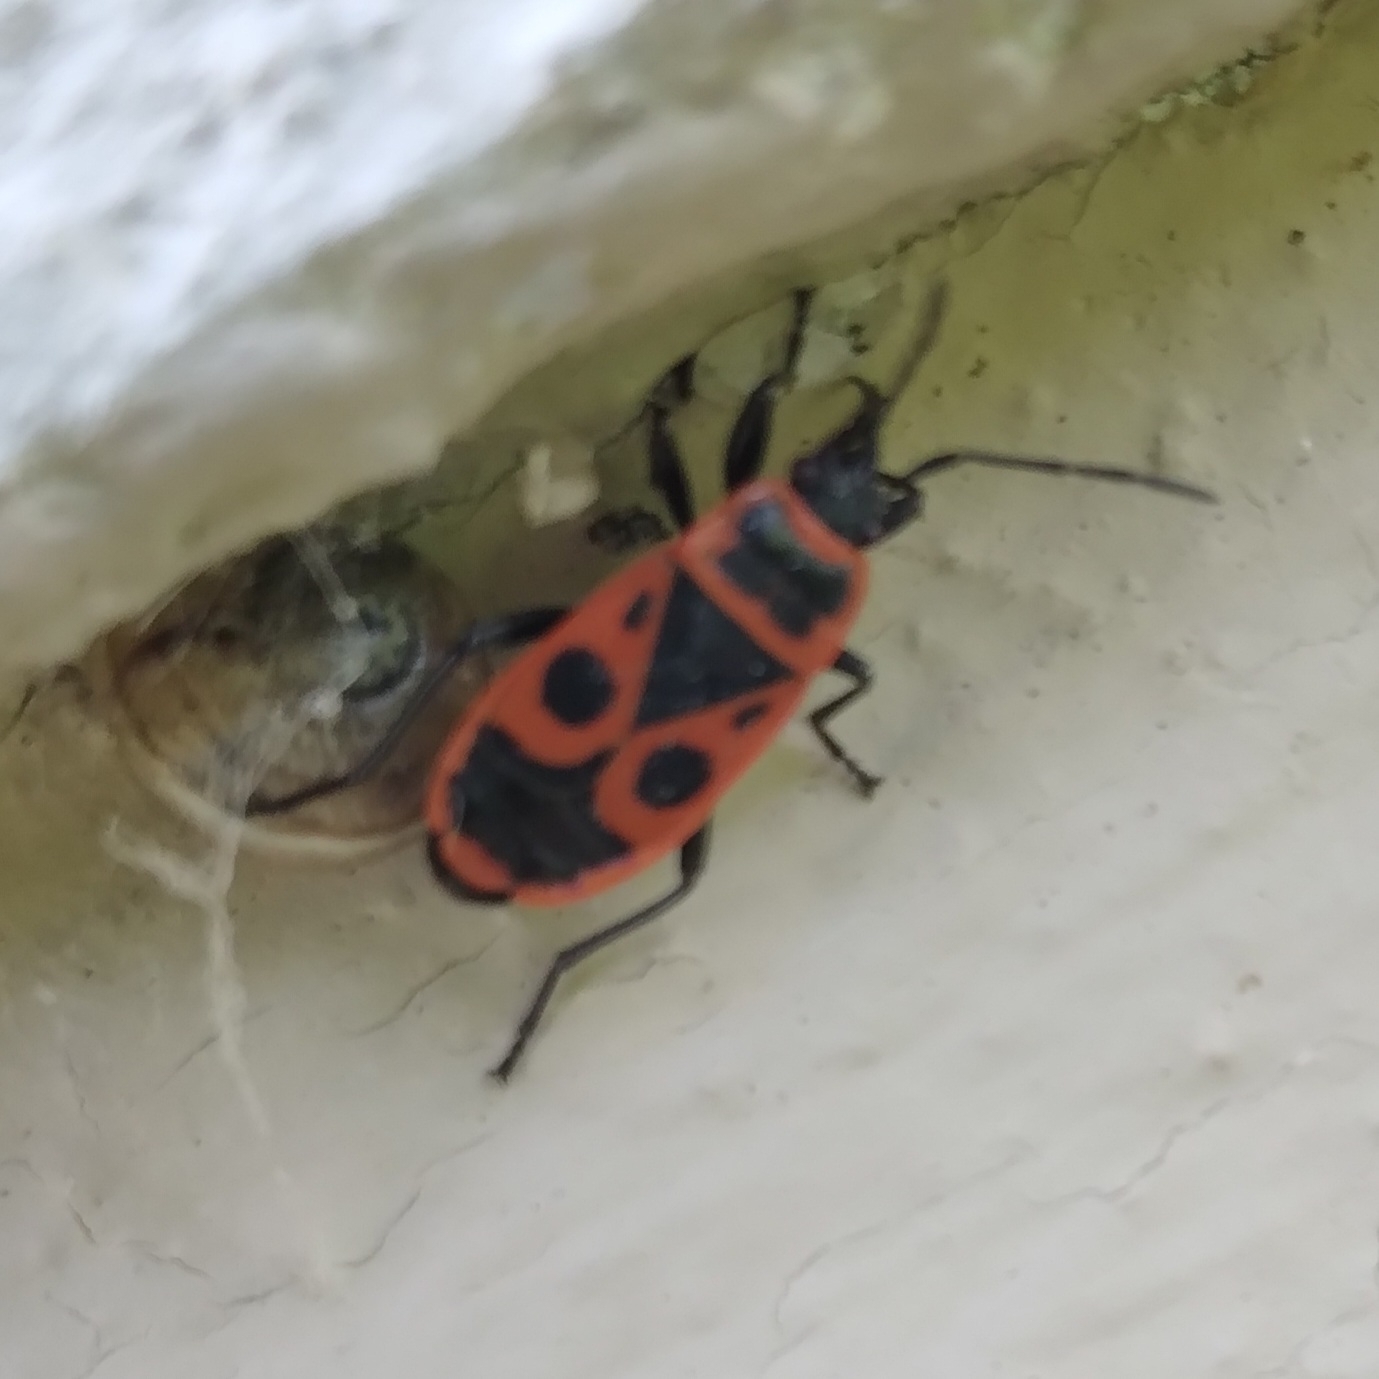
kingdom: Animalia
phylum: Arthropoda
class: Insecta
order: Hemiptera
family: Pyrrhocoridae
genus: Pyrrhocoris
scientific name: Pyrrhocoris apterus
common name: Firebug
